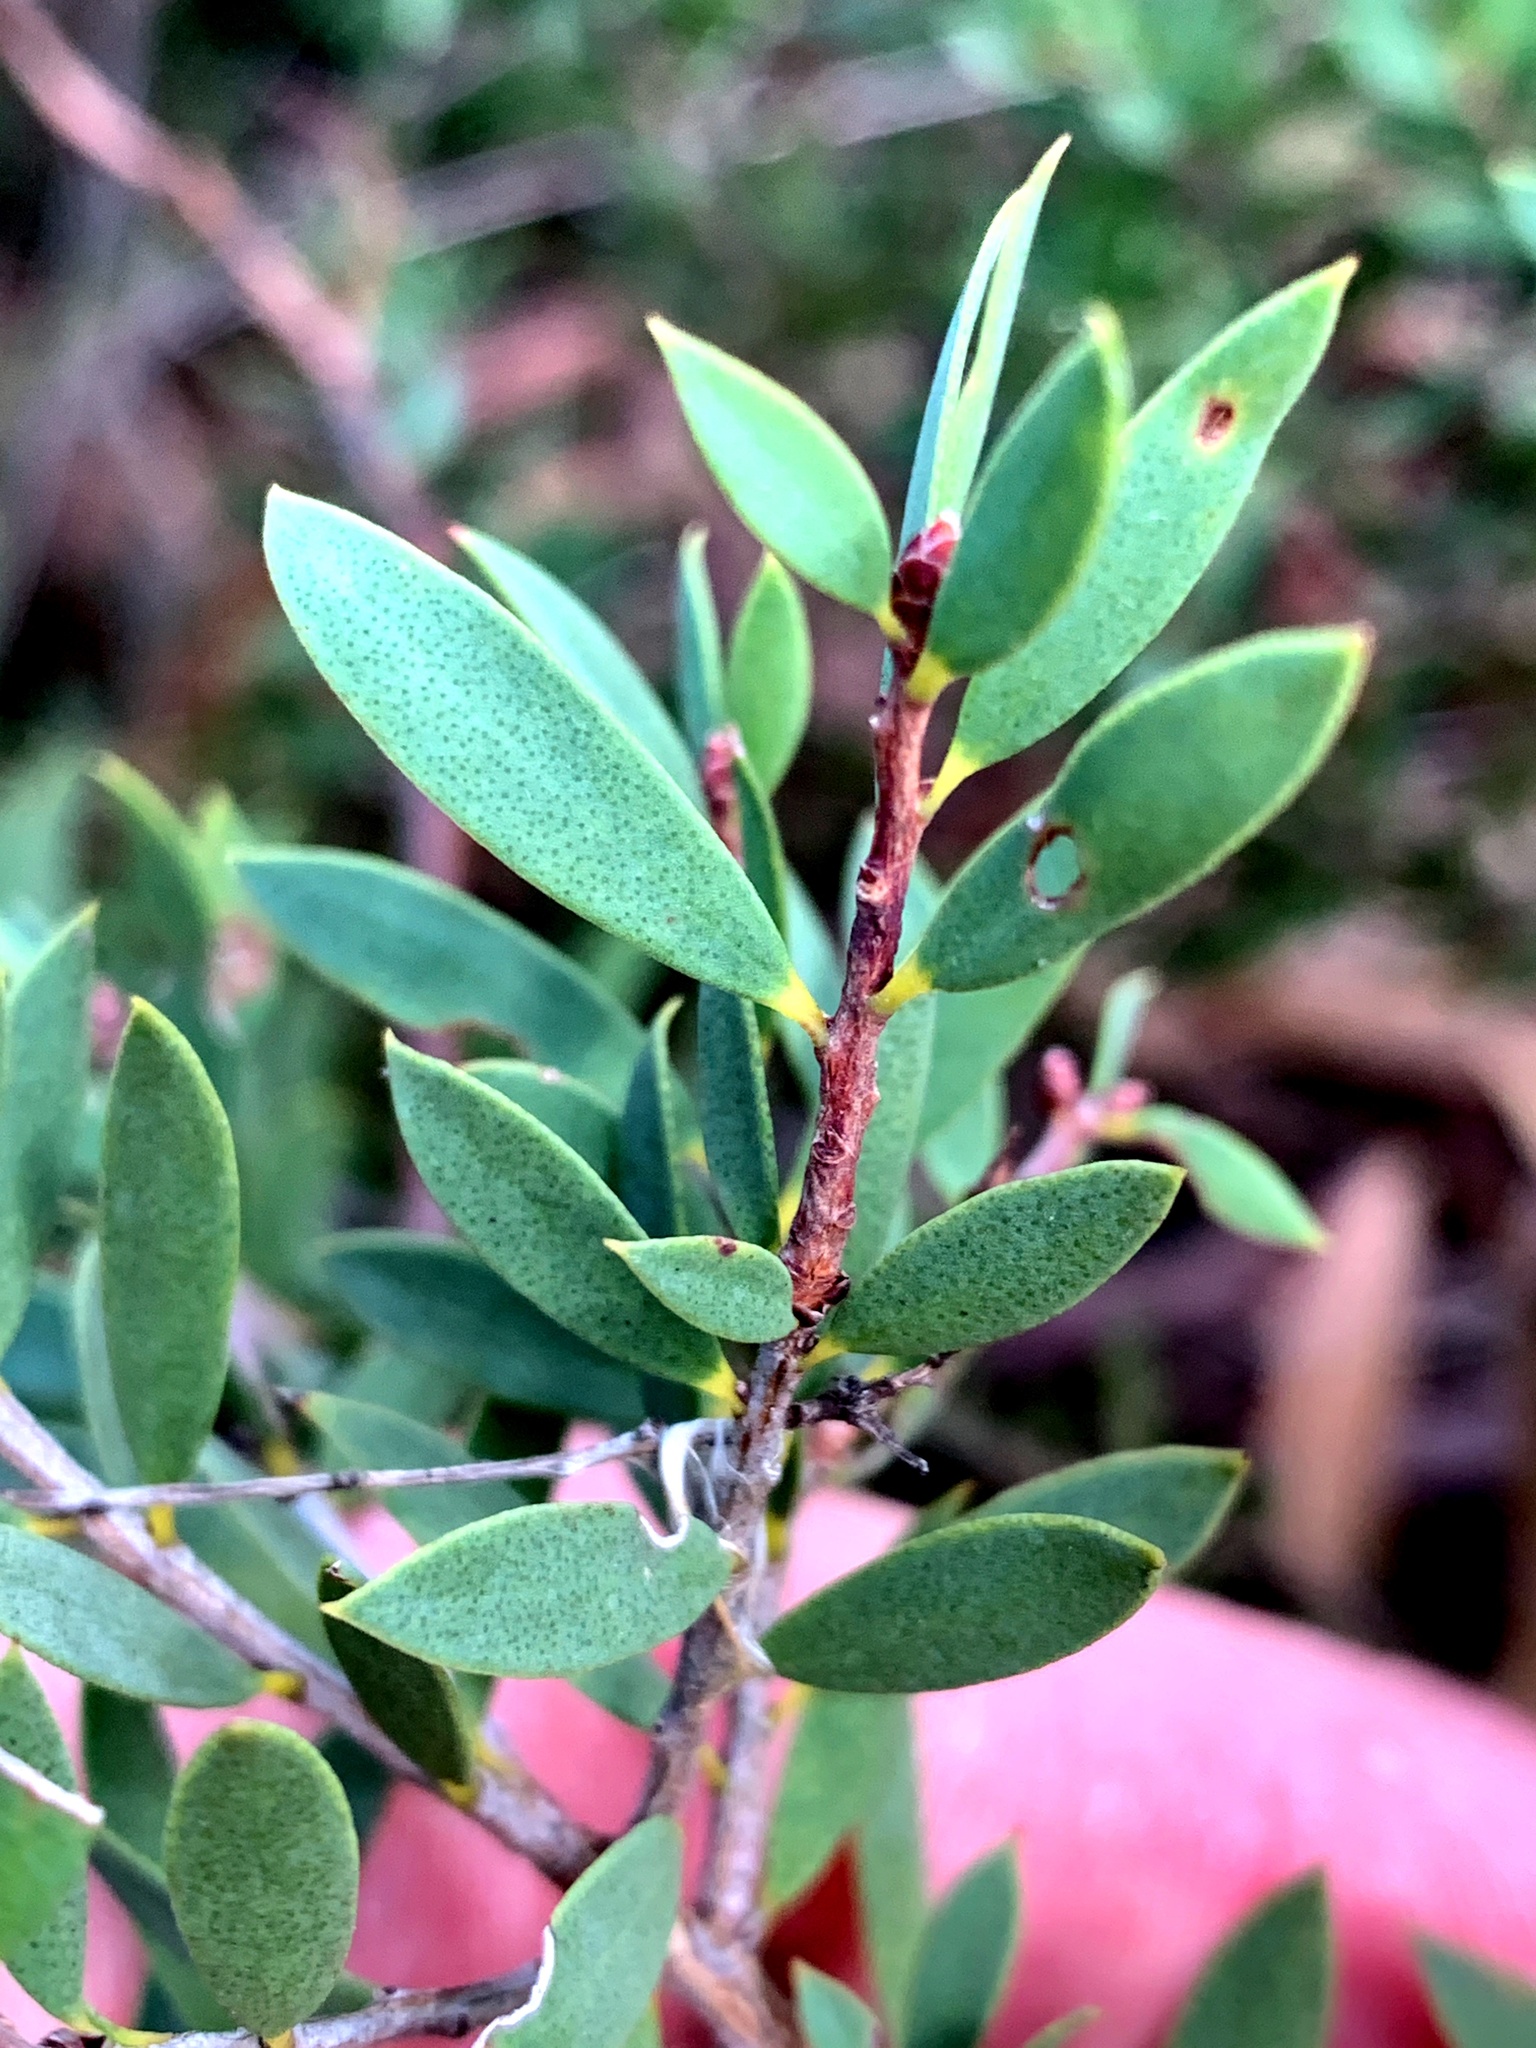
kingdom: Plantae
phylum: Tracheophyta
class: Magnoliopsida
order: Myrtales
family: Myrtaceae
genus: Melaleuca
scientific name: Melaleuca deanei
